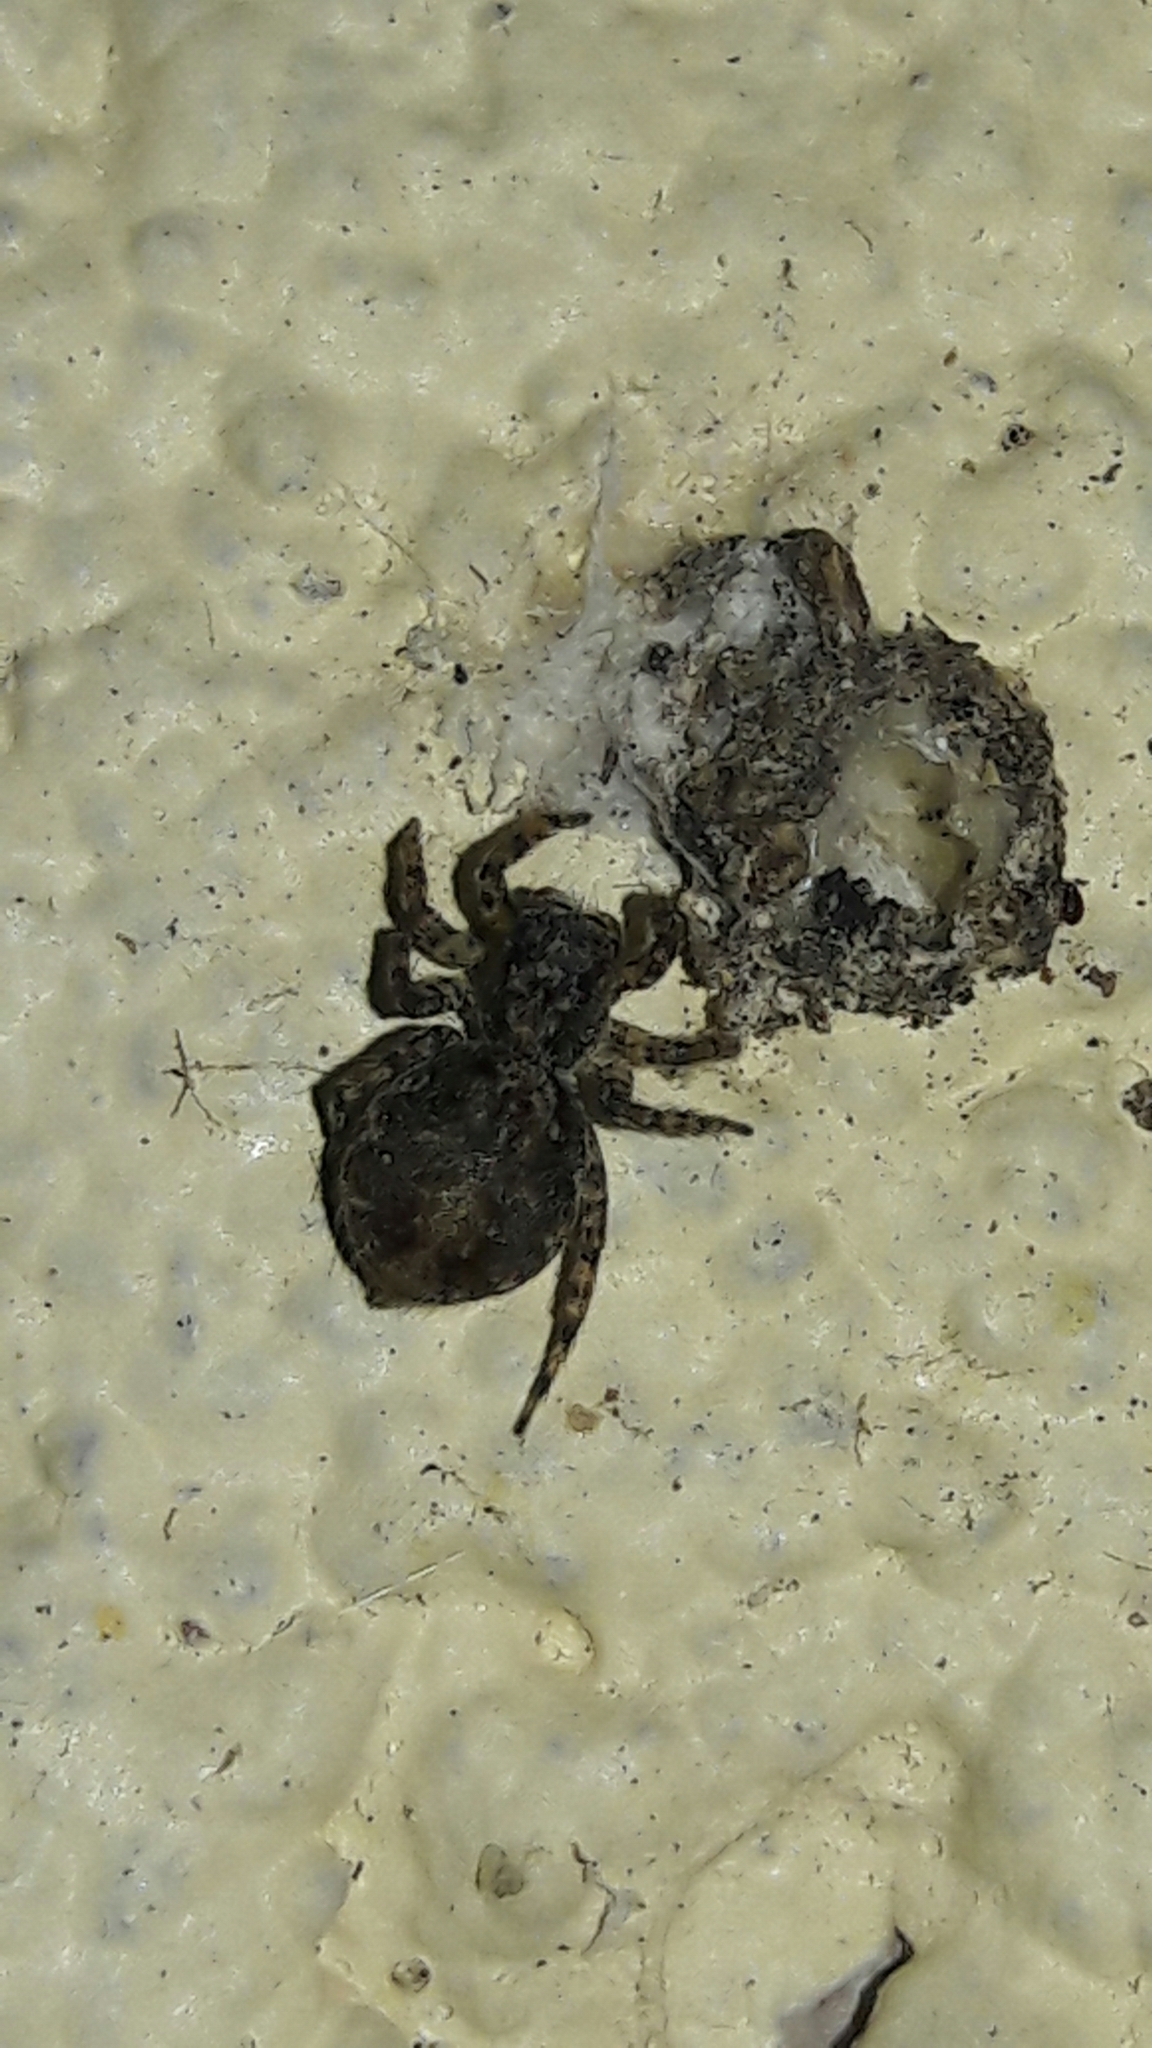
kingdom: Animalia
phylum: Arthropoda
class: Arachnida
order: Araneae
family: Salticidae
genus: Marma
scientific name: Marma nigritarsis
